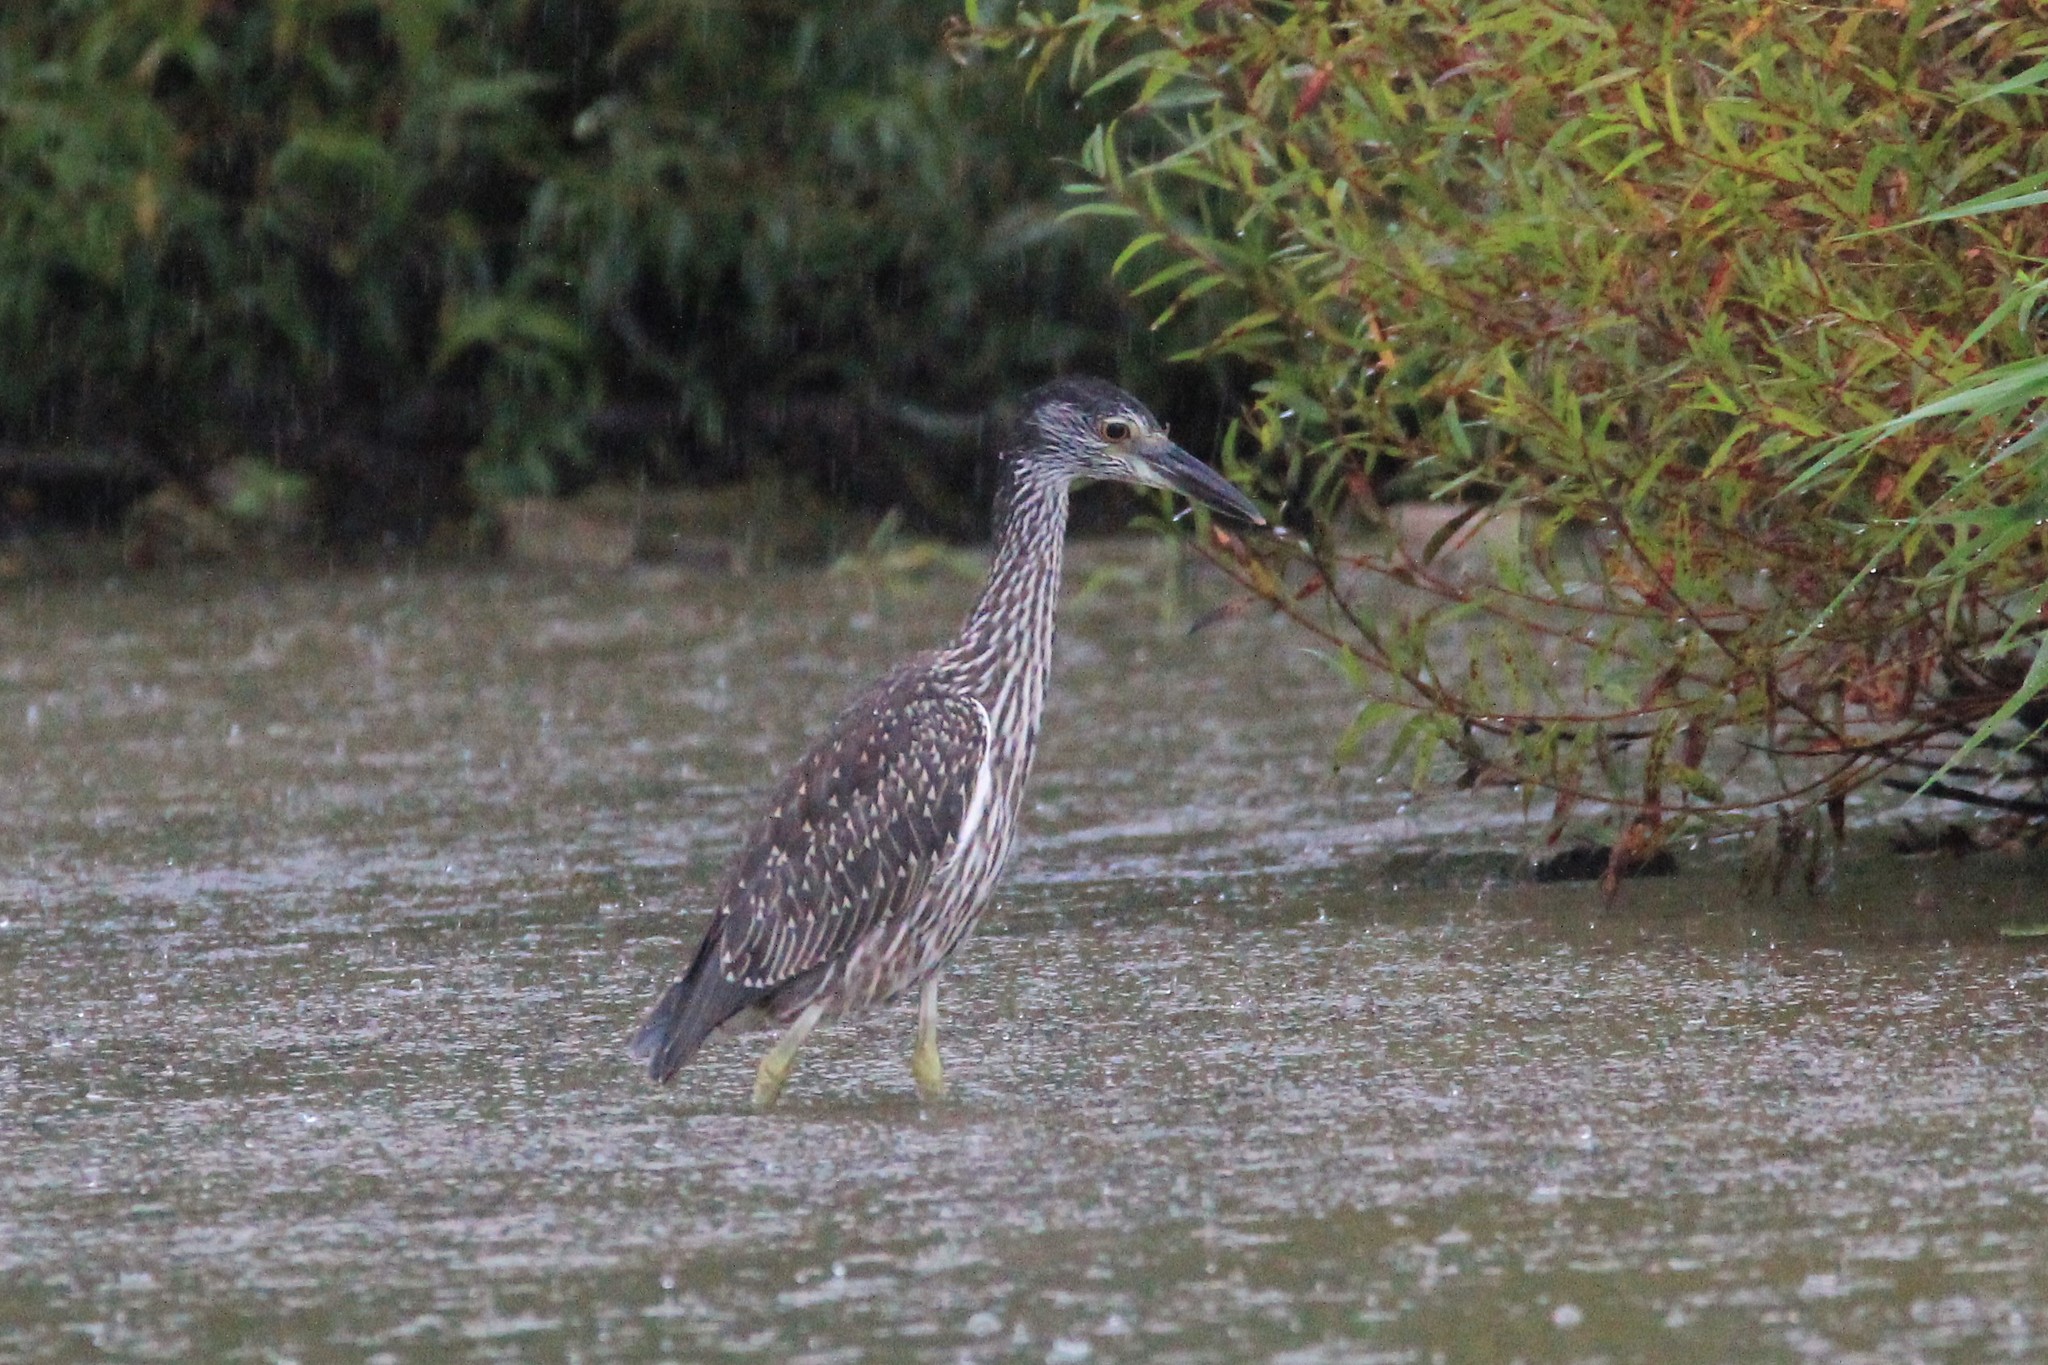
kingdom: Animalia
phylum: Chordata
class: Aves
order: Pelecaniformes
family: Ardeidae
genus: Nyctanassa
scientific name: Nyctanassa violacea
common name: Yellow-crowned night heron
